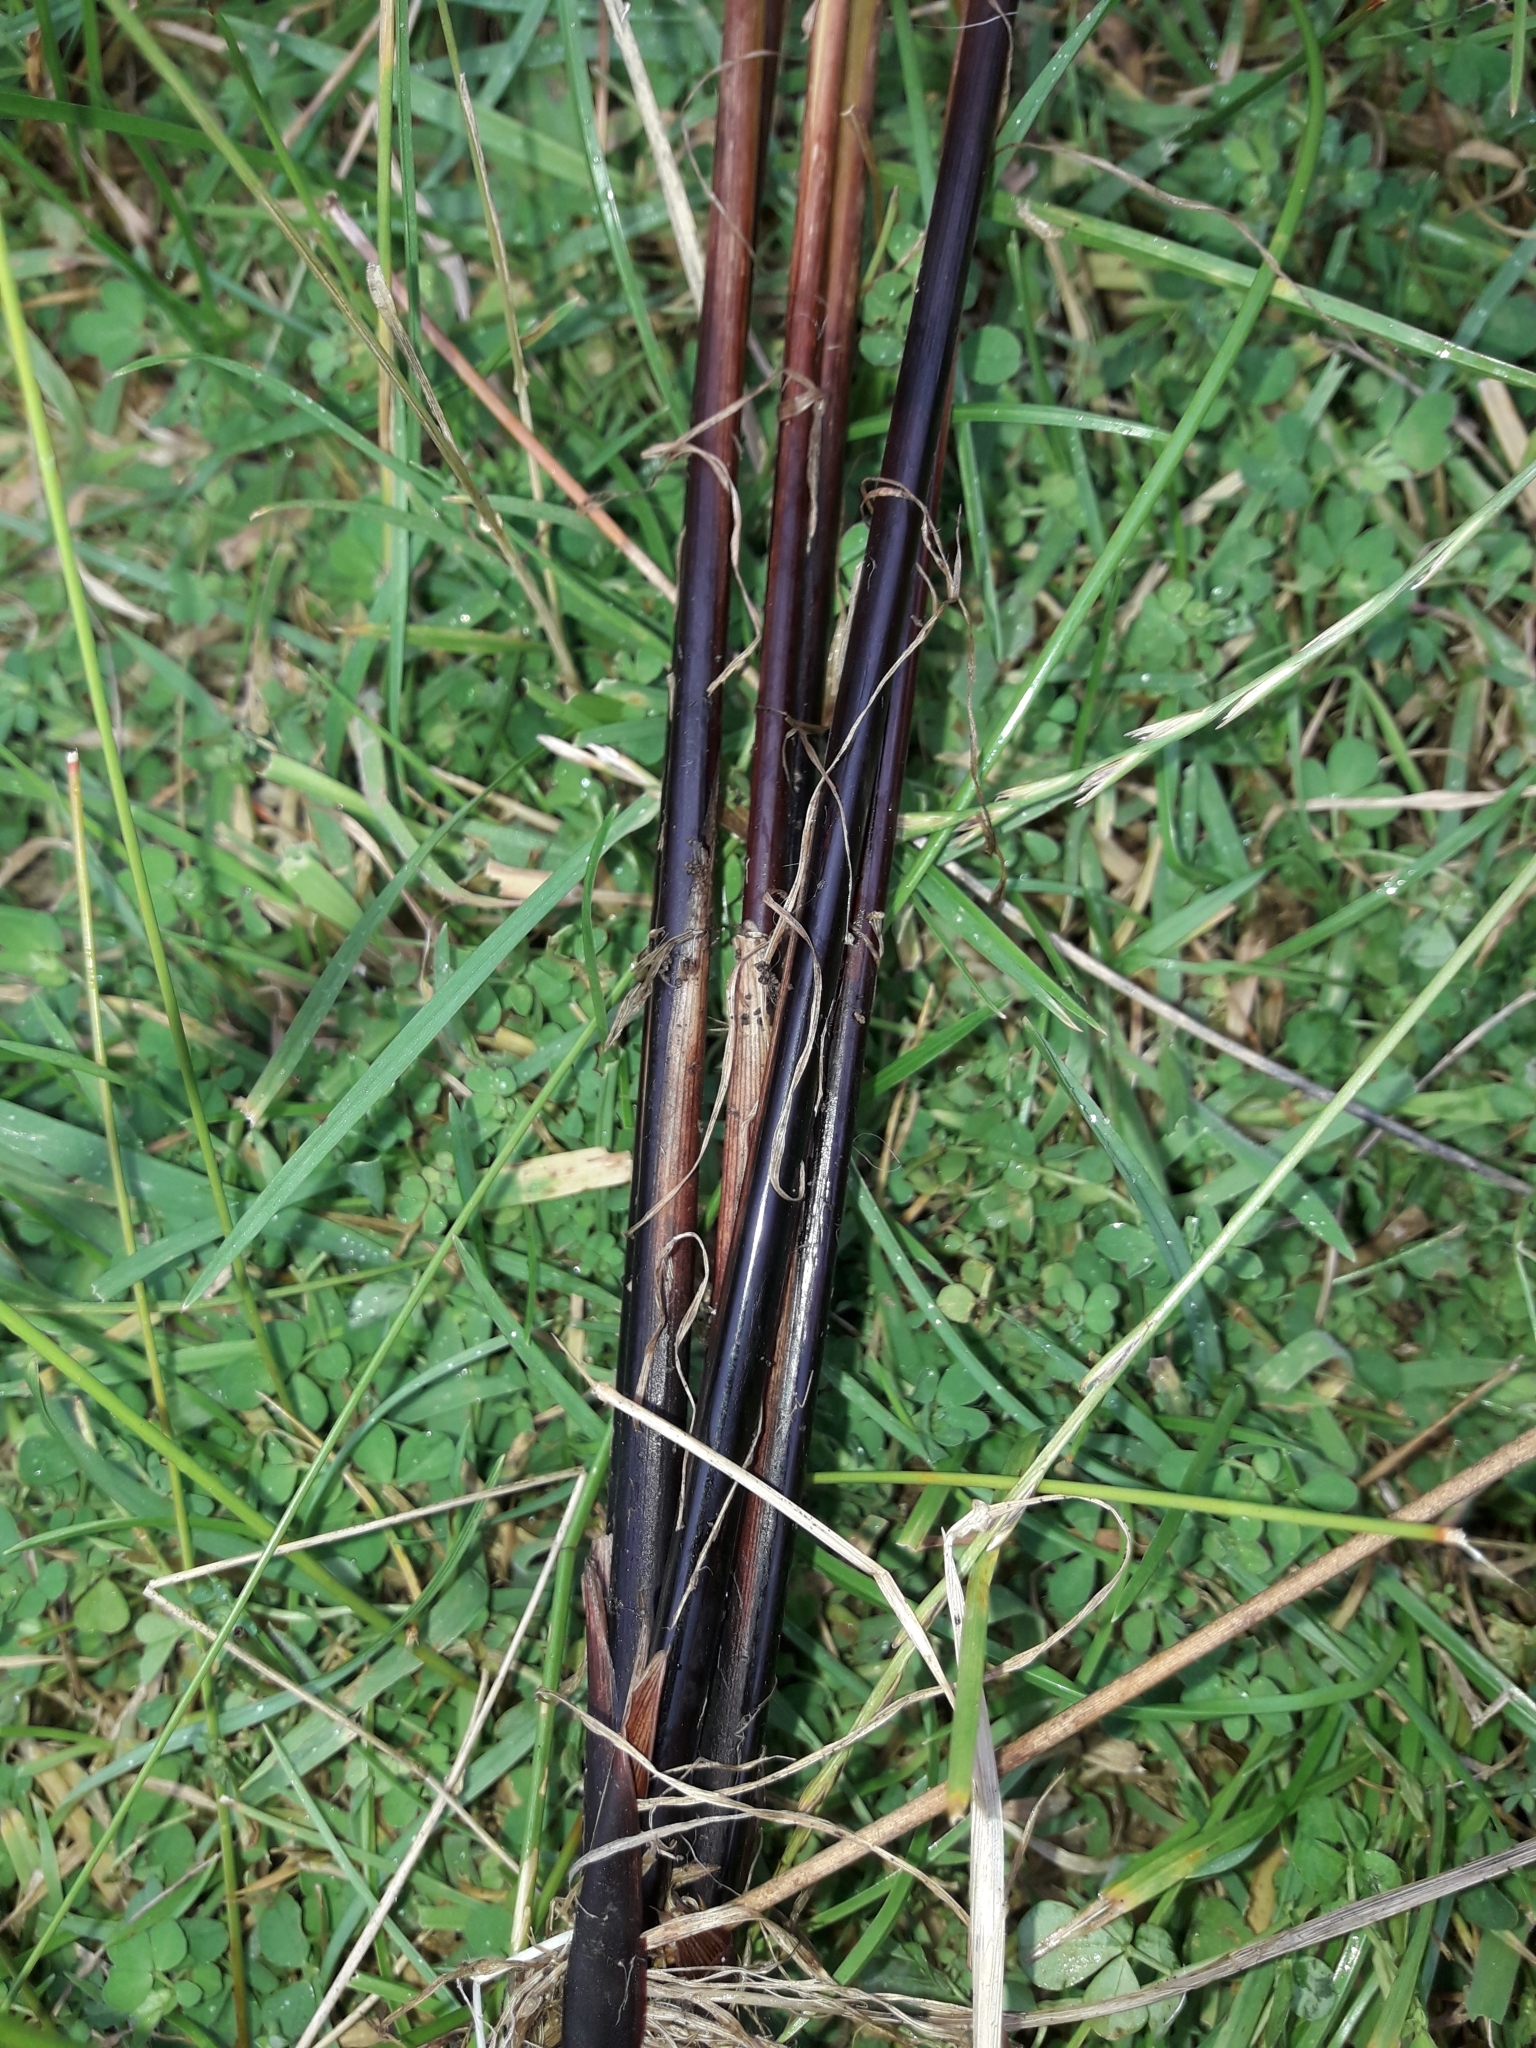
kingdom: Plantae
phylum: Tracheophyta
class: Liliopsida
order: Poales
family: Juncaceae
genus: Juncus
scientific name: Juncus sarophorus
